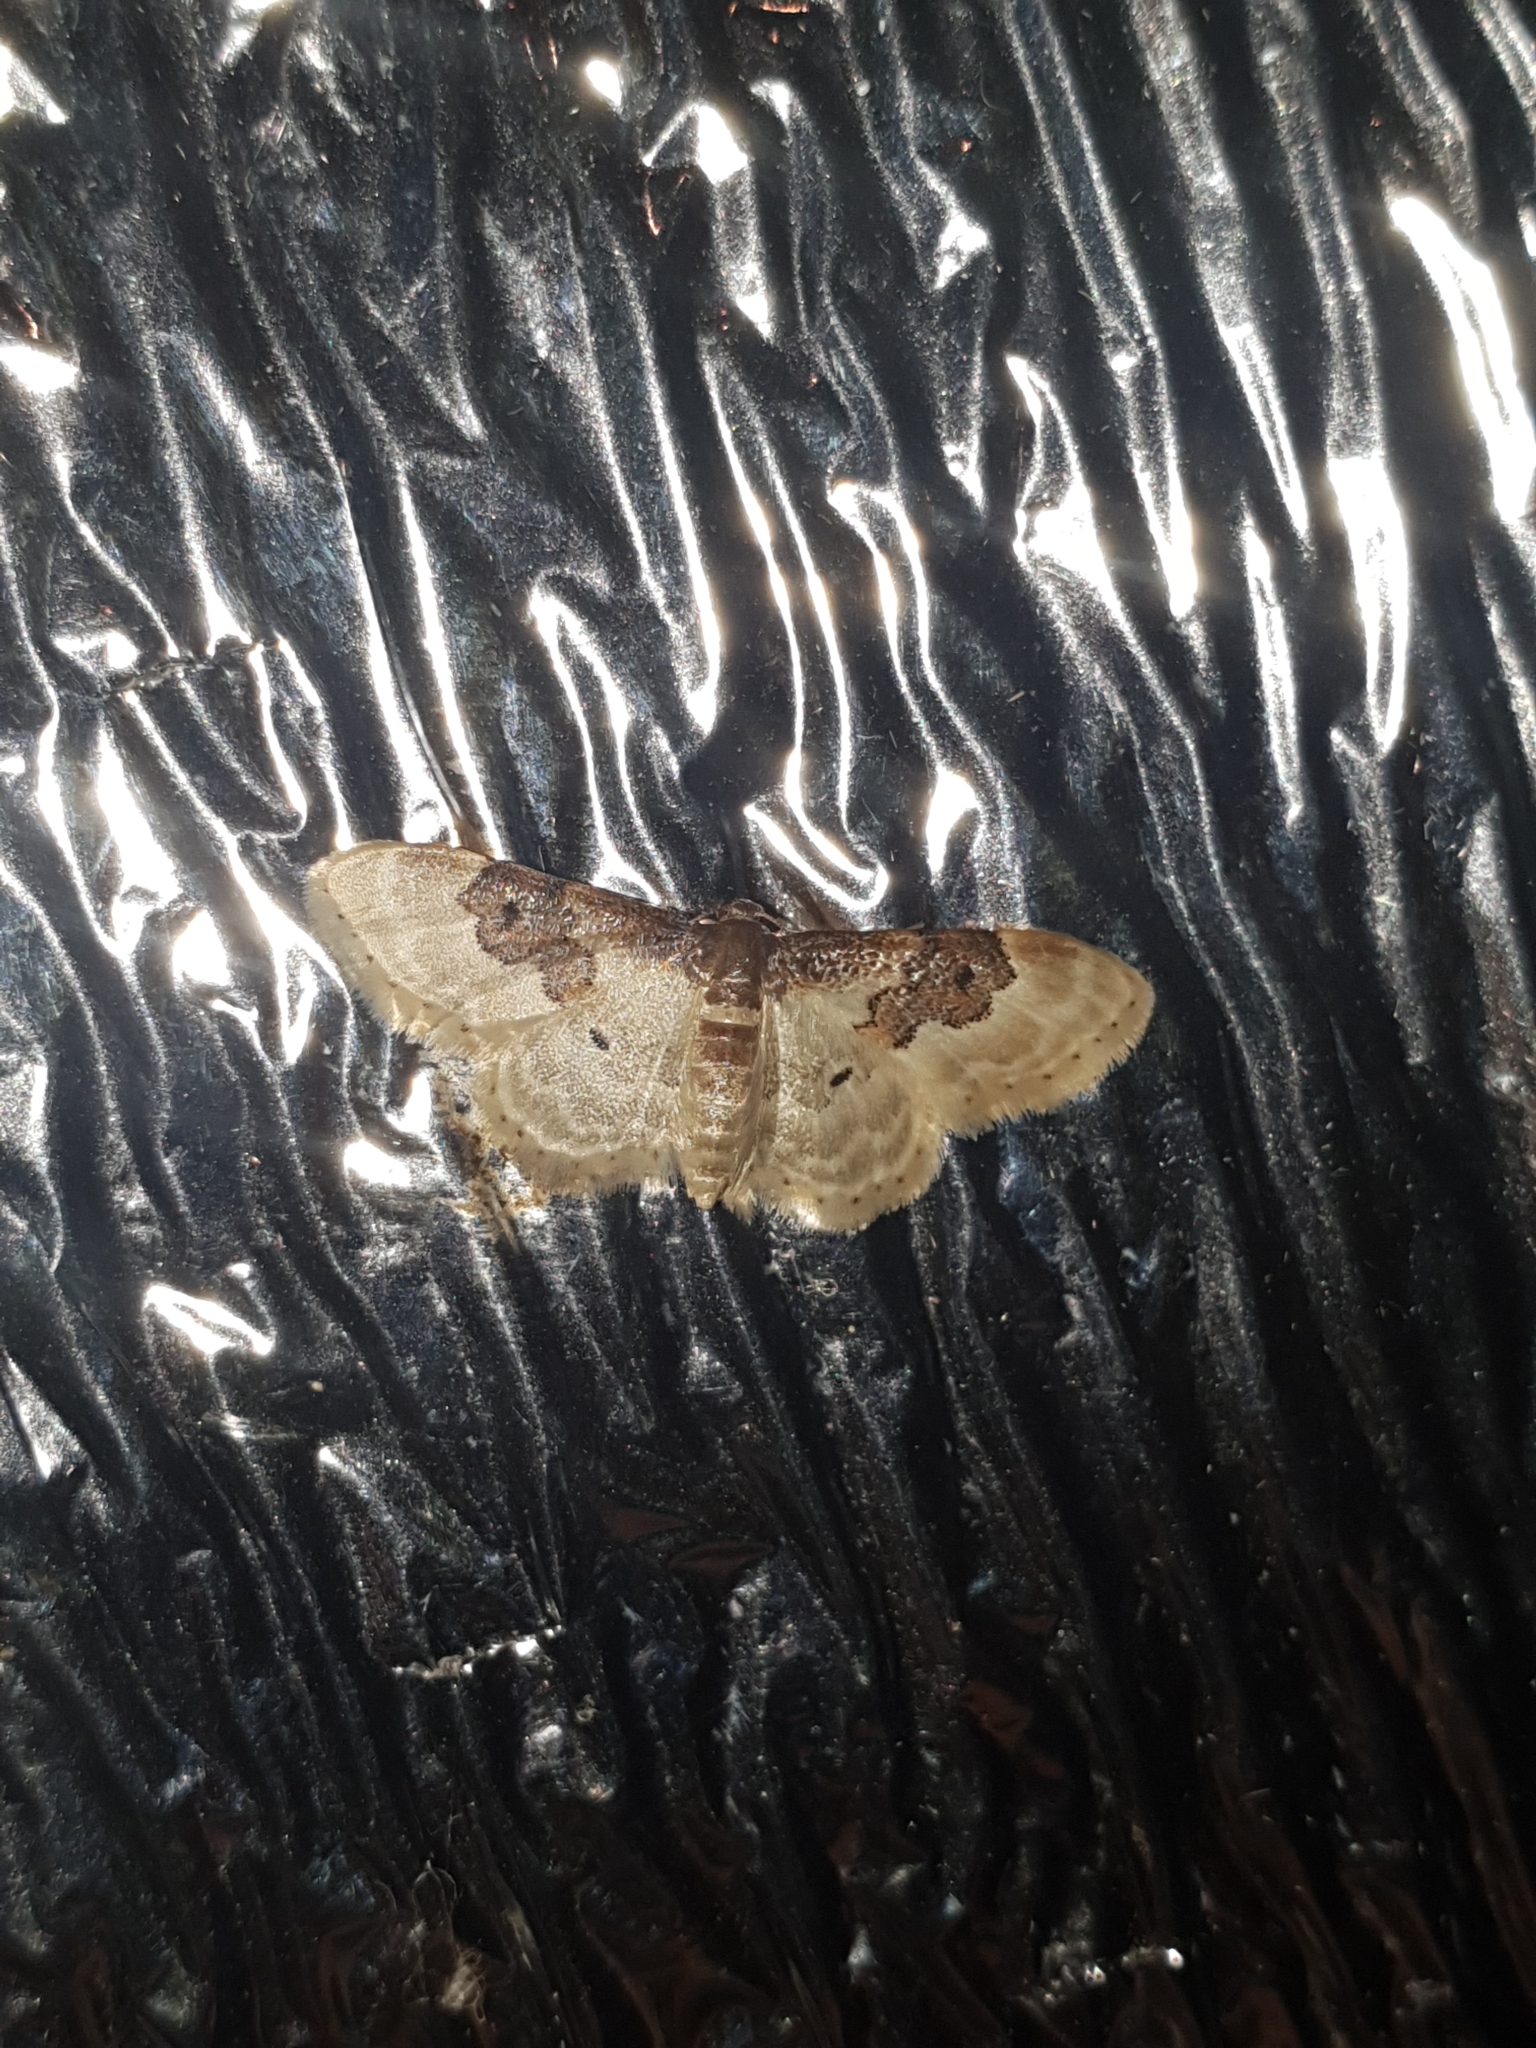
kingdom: Animalia
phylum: Arthropoda
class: Insecta
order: Lepidoptera
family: Geometridae
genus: Idaea
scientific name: Idaea rusticata
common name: Least carpet
